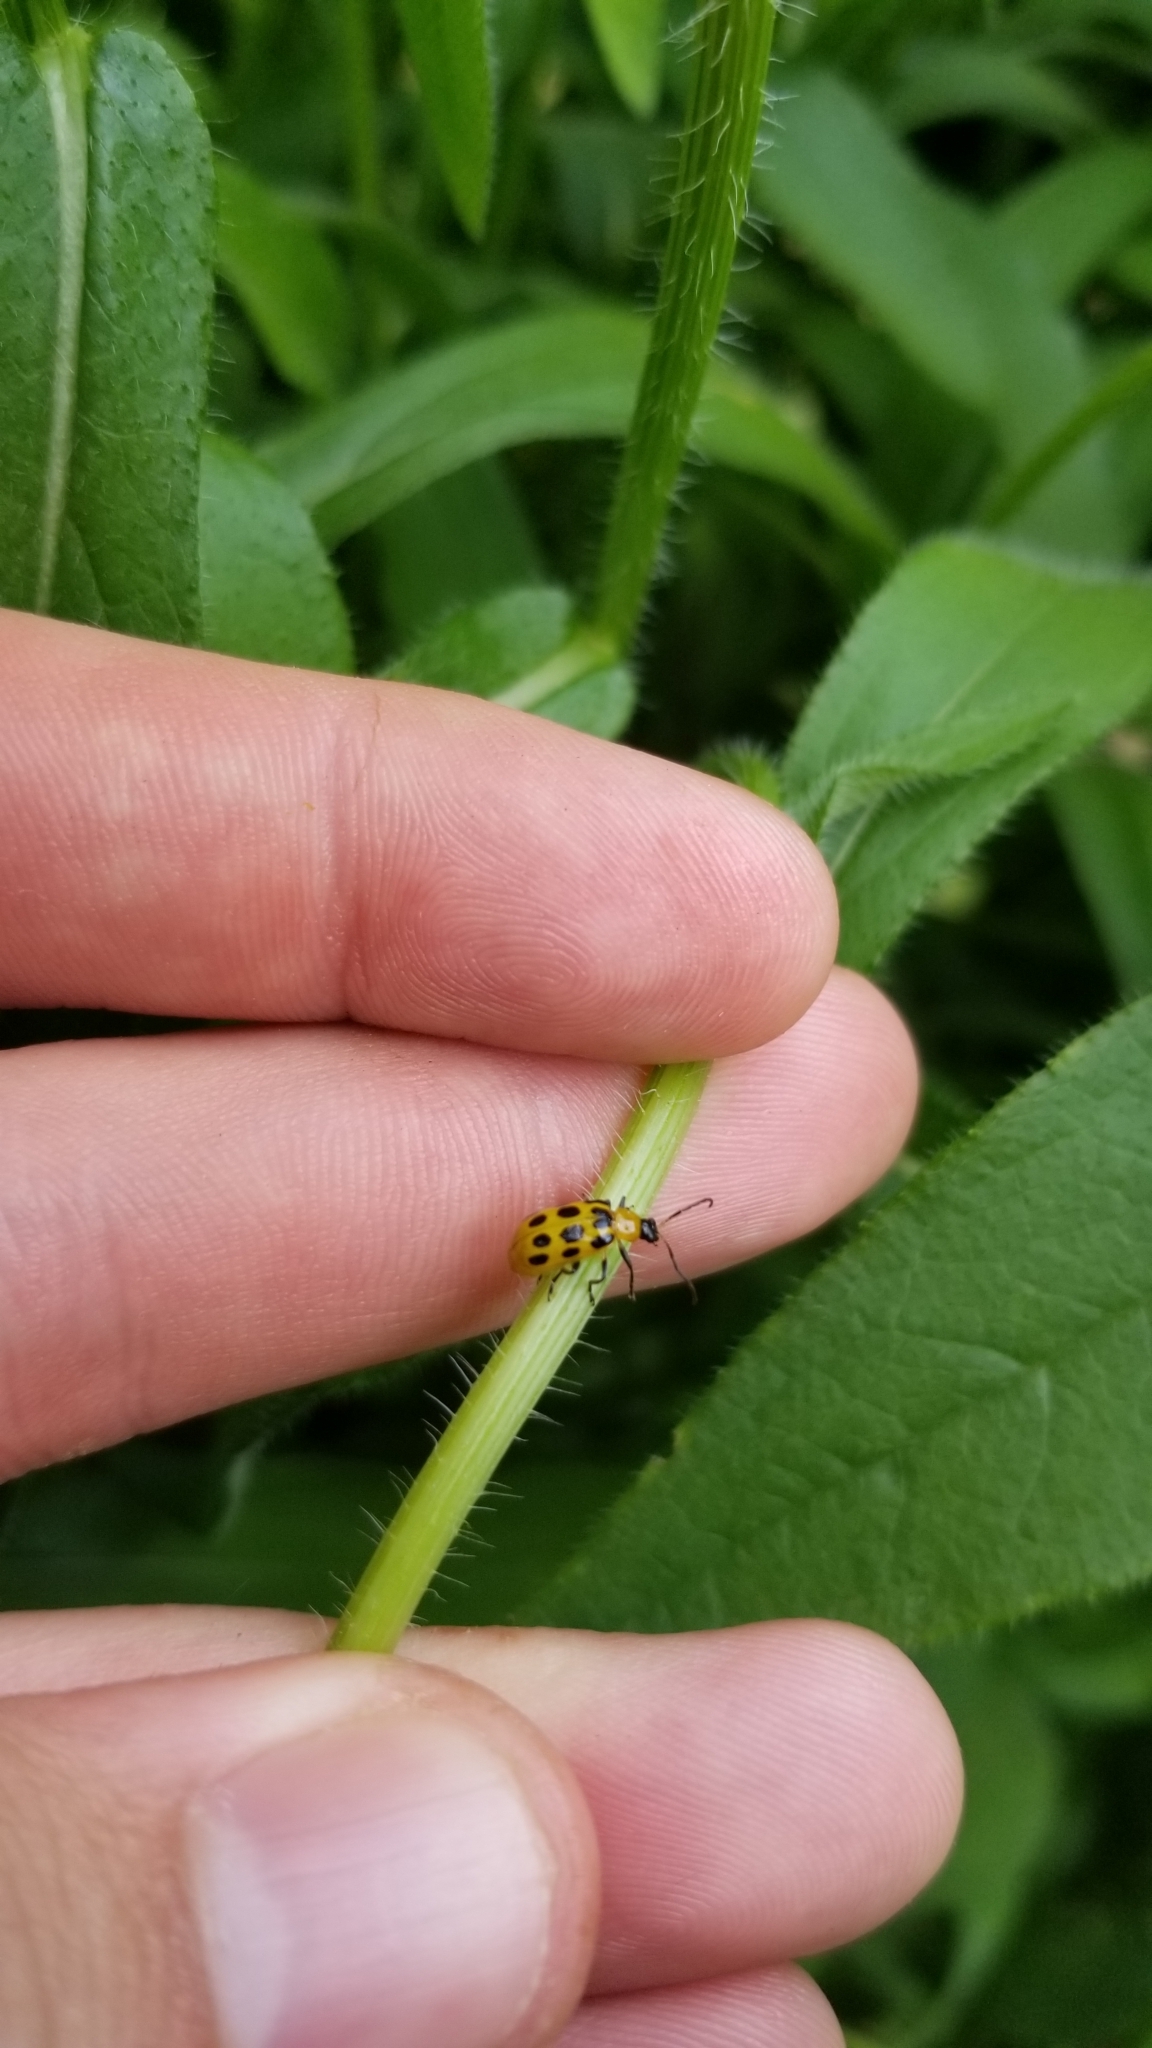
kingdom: Animalia
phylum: Arthropoda
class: Insecta
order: Coleoptera
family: Chrysomelidae
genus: Diabrotica
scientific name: Diabrotica undecimpunctata
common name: Spotted cucumber beetle
